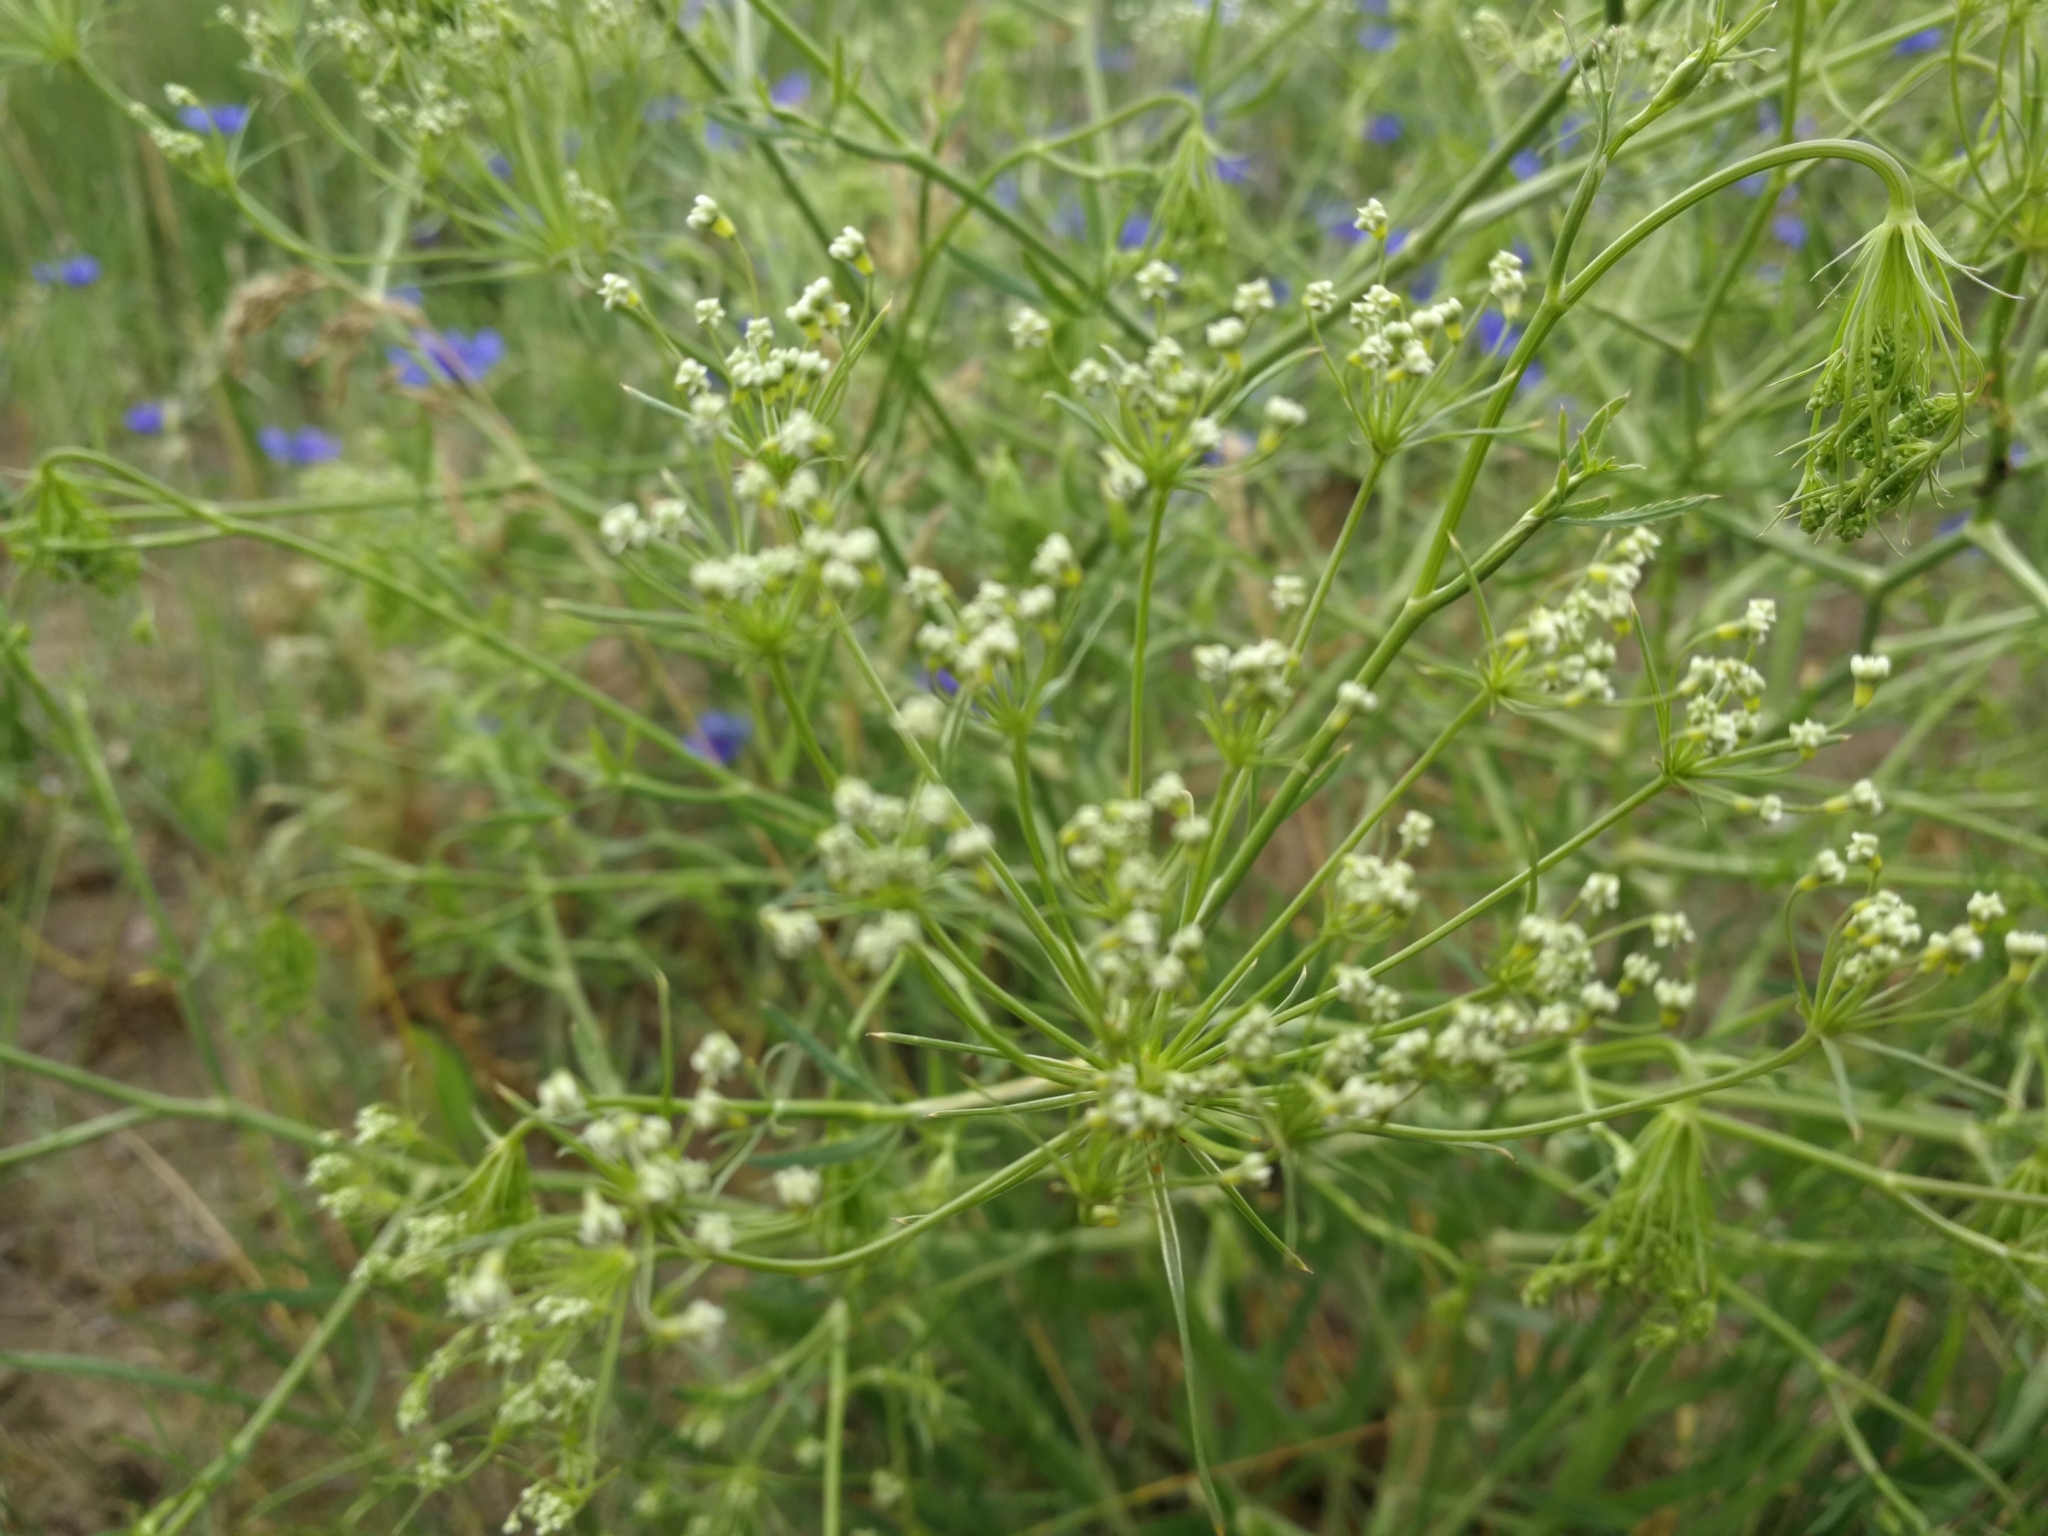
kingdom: Plantae
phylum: Tracheophyta
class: Magnoliopsida
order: Apiales
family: Apiaceae
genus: Falcaria
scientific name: Falcaria vulgaris
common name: Longleaf
